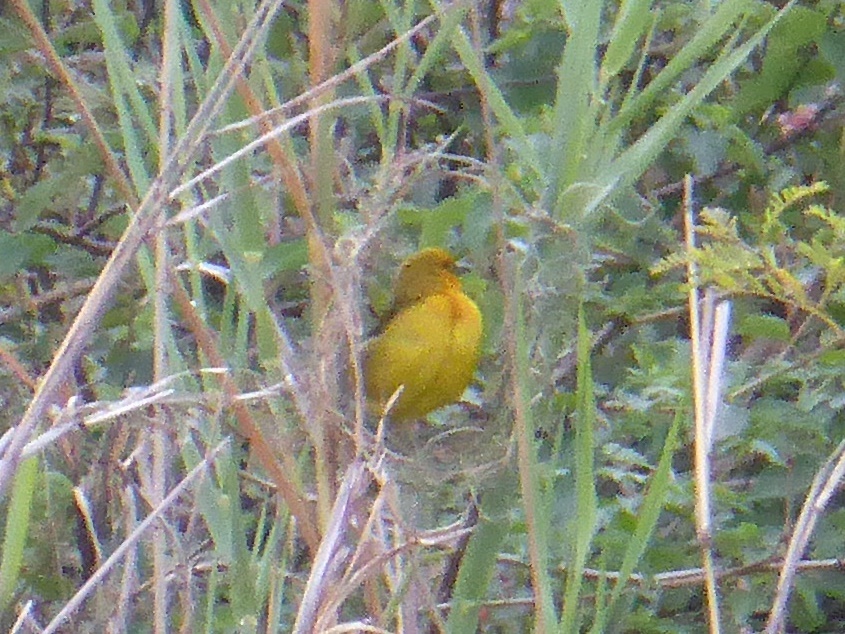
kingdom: Animalia
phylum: Chordata
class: Aves
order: Passeriformes
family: Ploceidae
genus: Ploceus
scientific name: Ploceus ocularis
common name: Spectacled weaver
